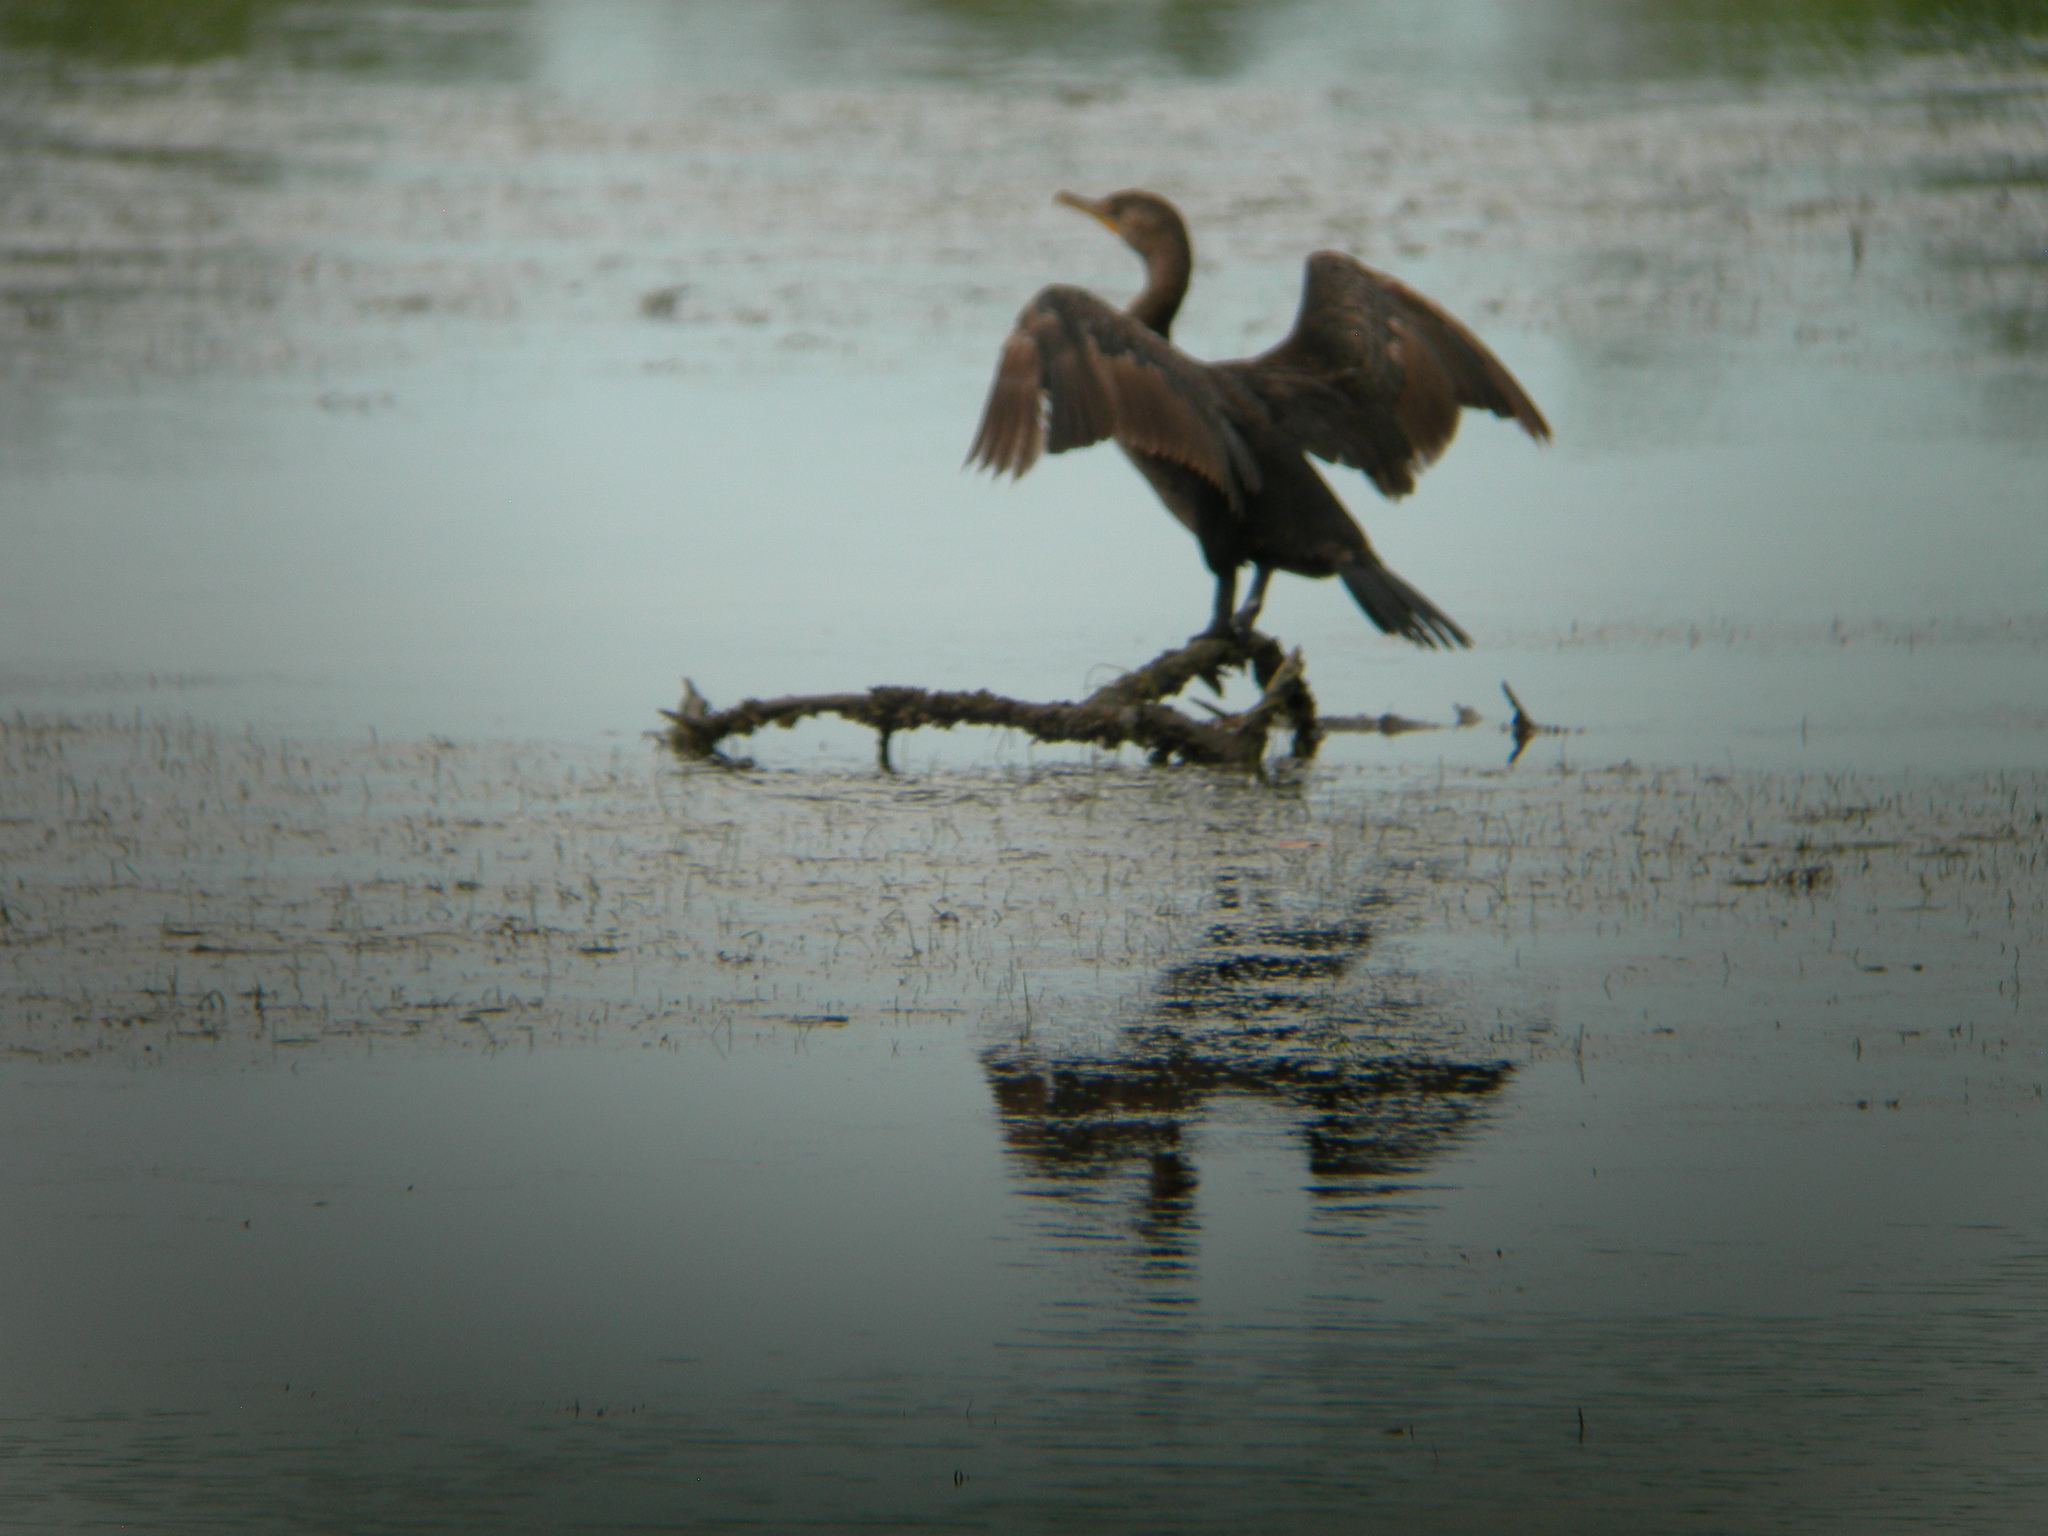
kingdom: Animalia
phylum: Chordata
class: Aves
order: Suliformes
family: Phalacrocoracidae
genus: Phalacrocorax
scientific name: Phalacrocorax auritus
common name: Double-crested cormorant
